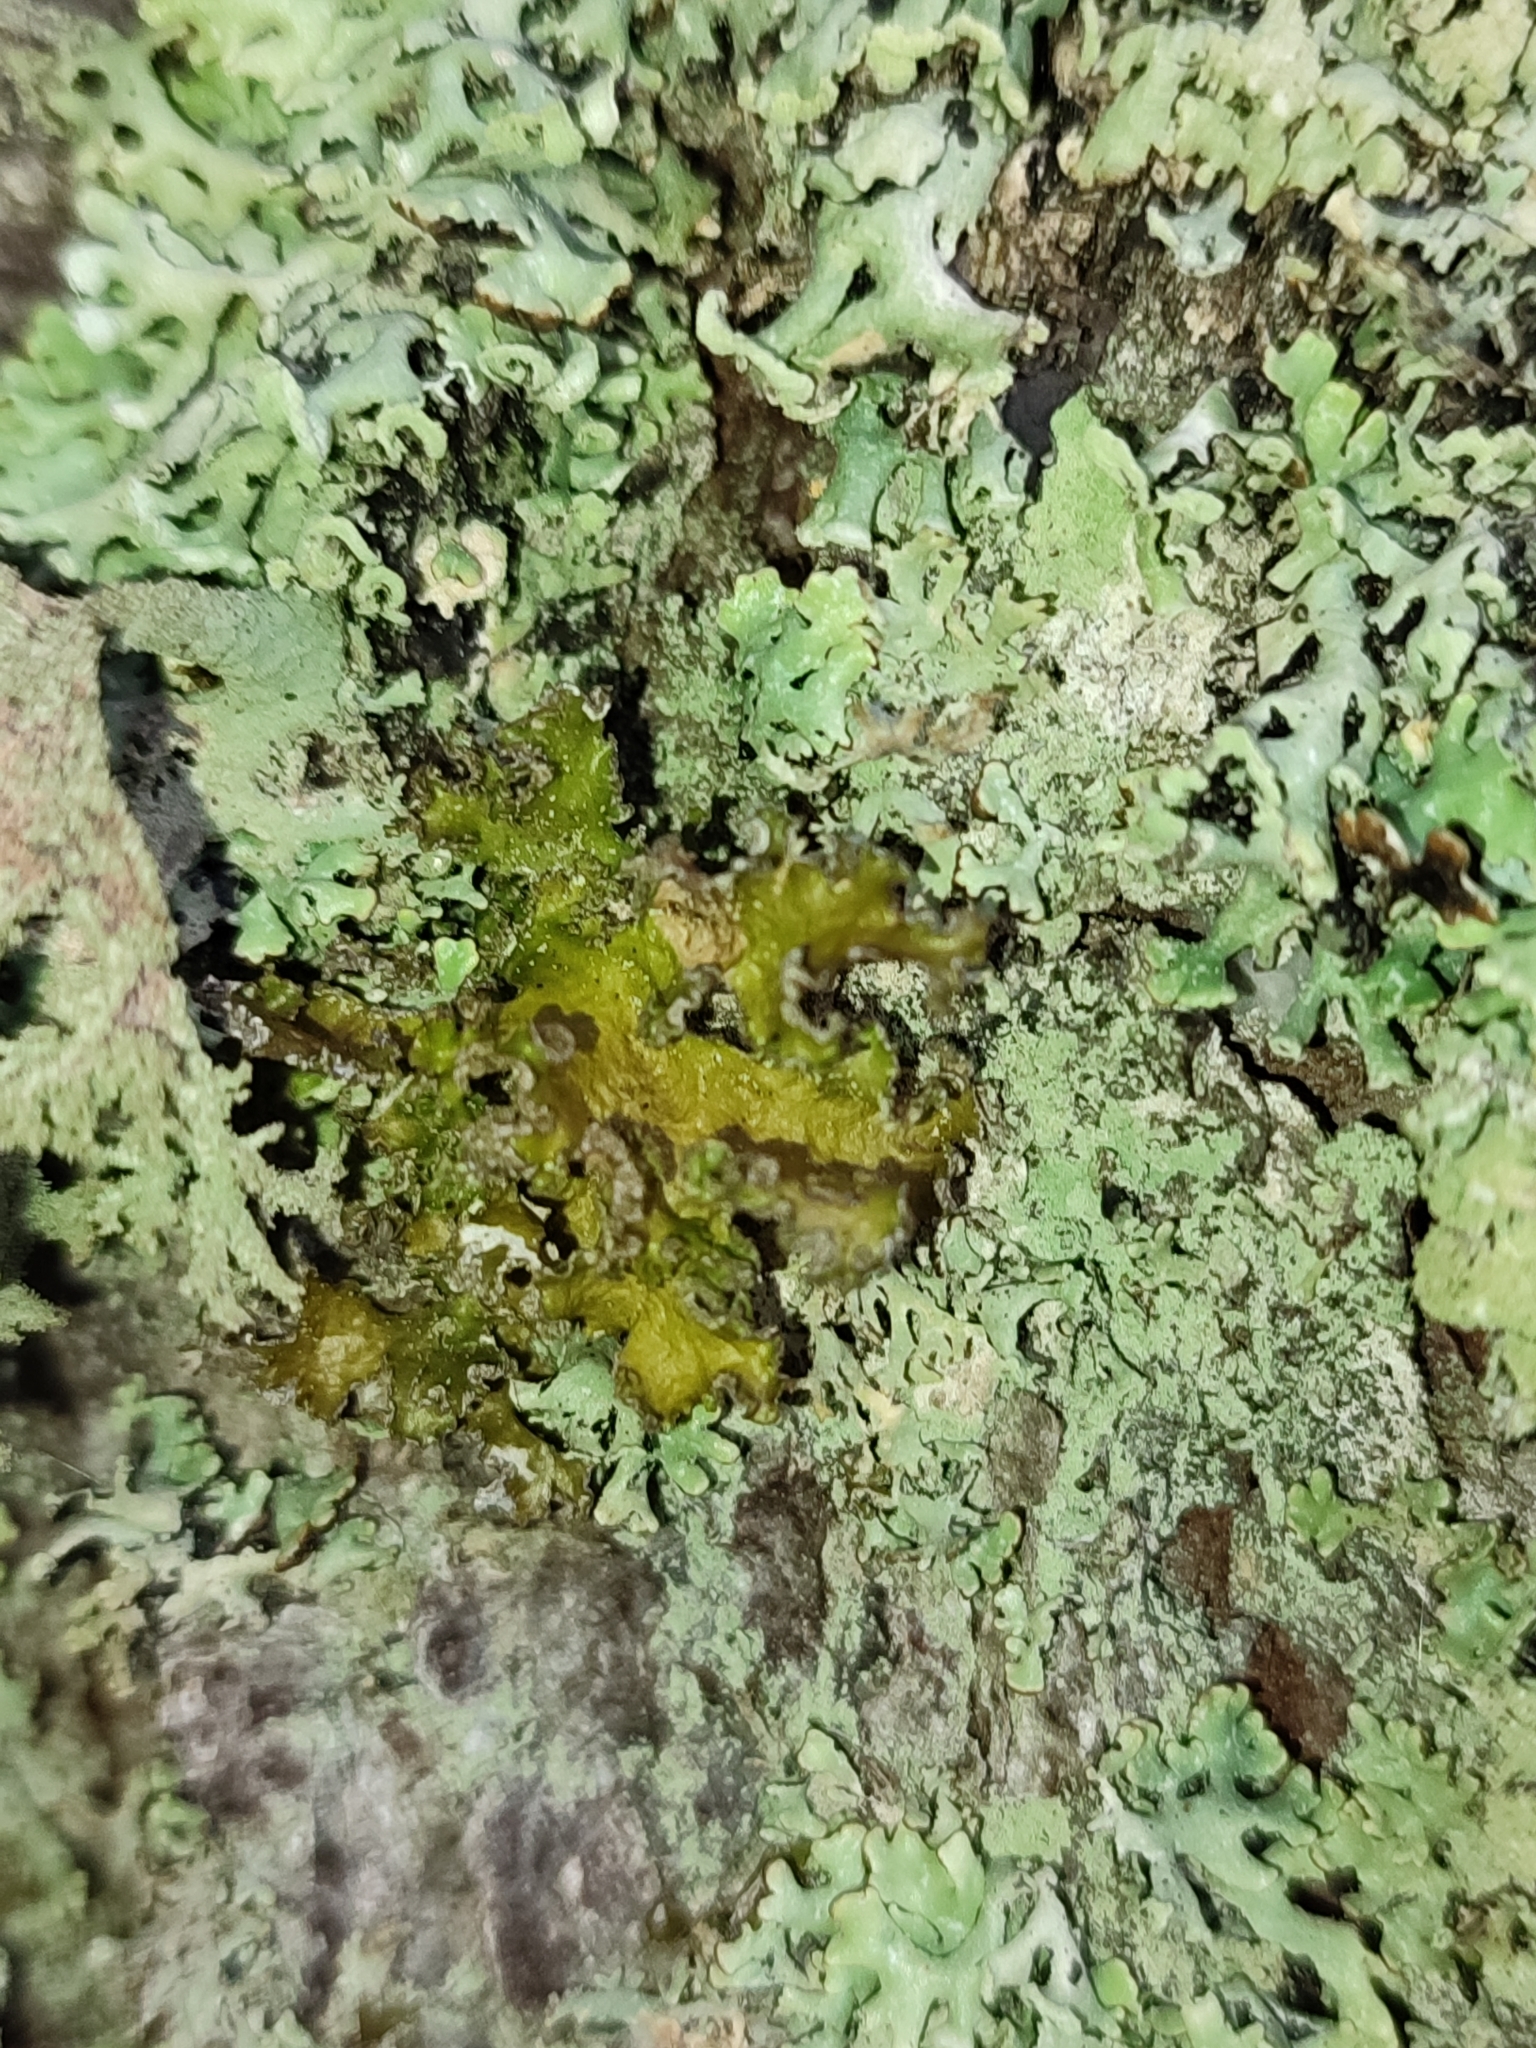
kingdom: Fungi
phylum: Ascomycota
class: Lecanoromycetes
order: Lecanorales
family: Parmeliaceae
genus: Nephromopsis
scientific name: Nephromopsis chlorophylla
